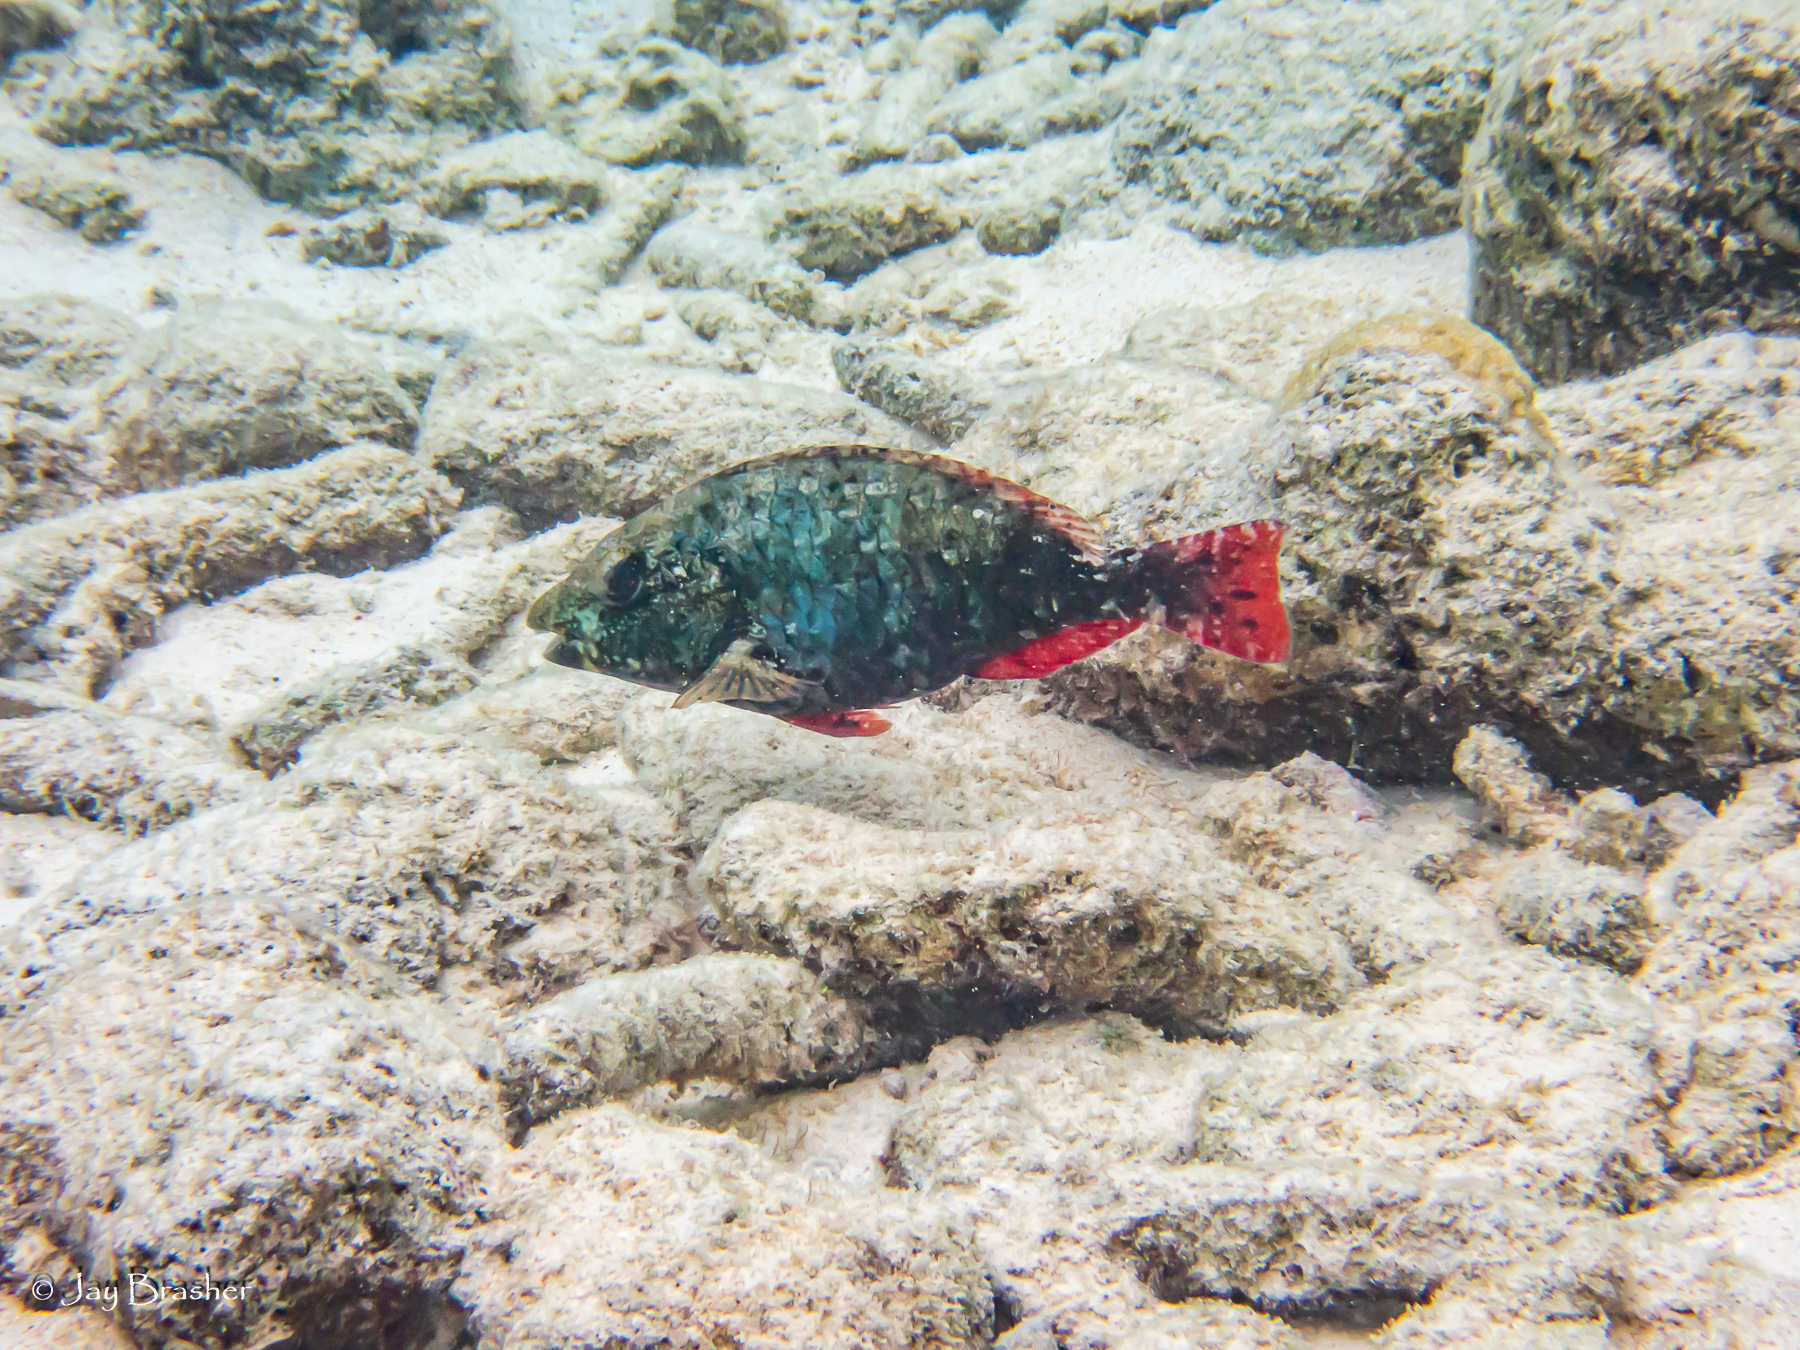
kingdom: Animalia
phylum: Chordata
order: Perciformes
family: Scaridae
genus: Sparisoma
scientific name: Sparisoma aurofrenatum
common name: Redband parrotfish
